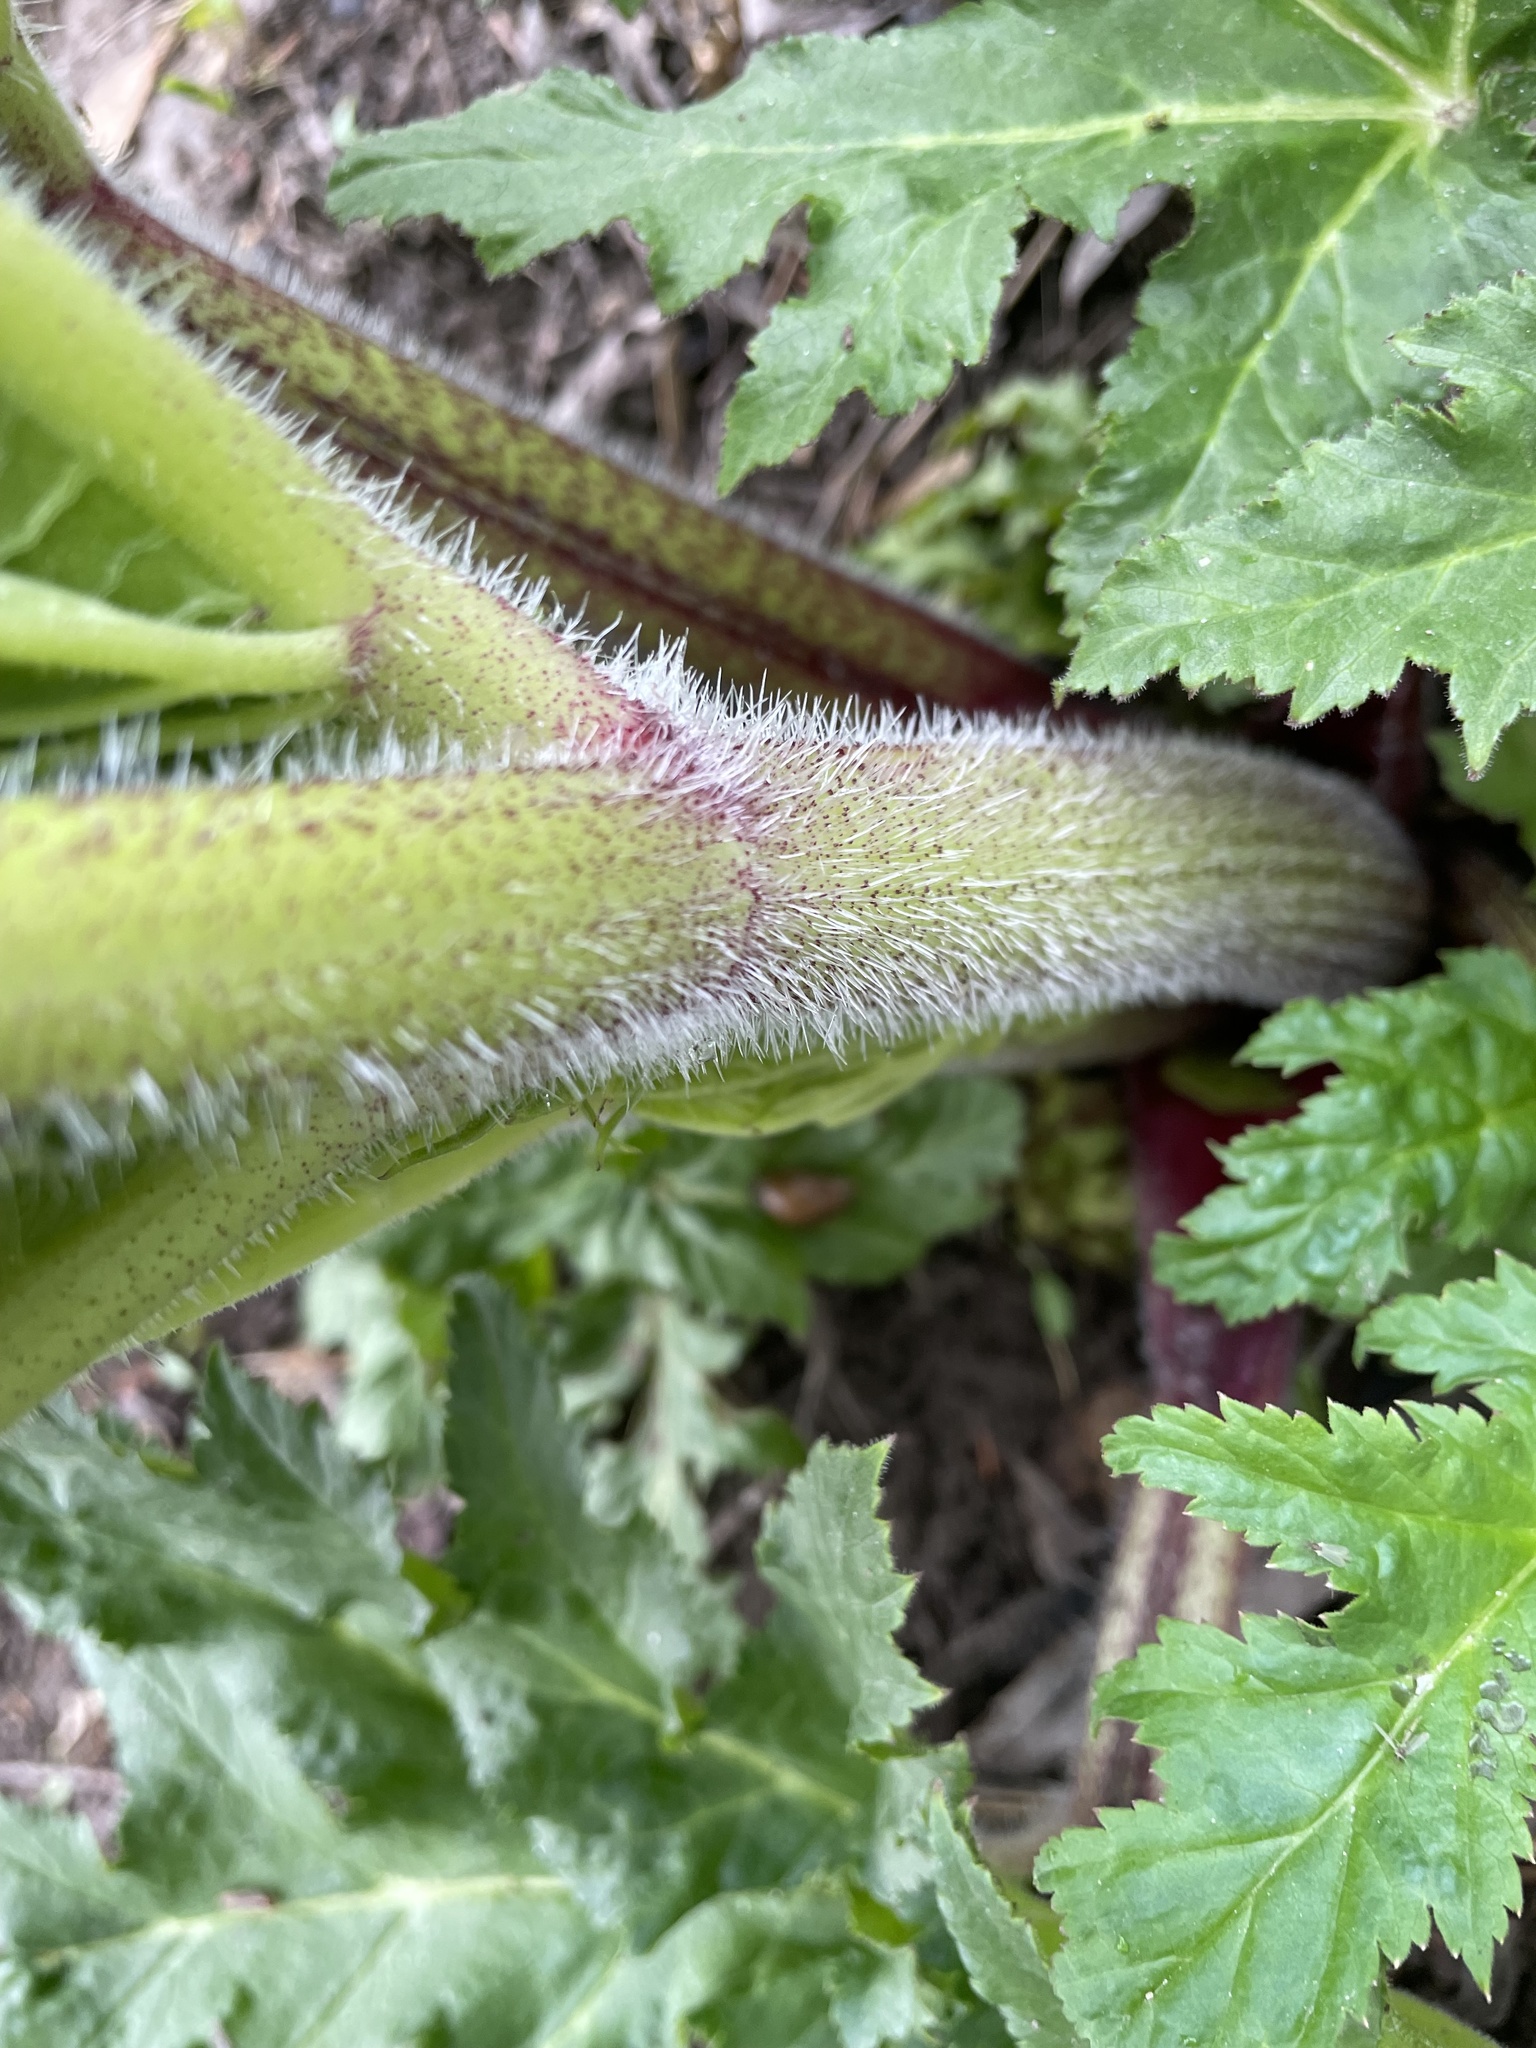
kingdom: Plantae
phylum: Tracheophyta
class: Magnoliopsida
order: Apiales
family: Apiaceae
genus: Heracleum
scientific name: Heracleum mantegazzianum
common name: Giant hogweed
